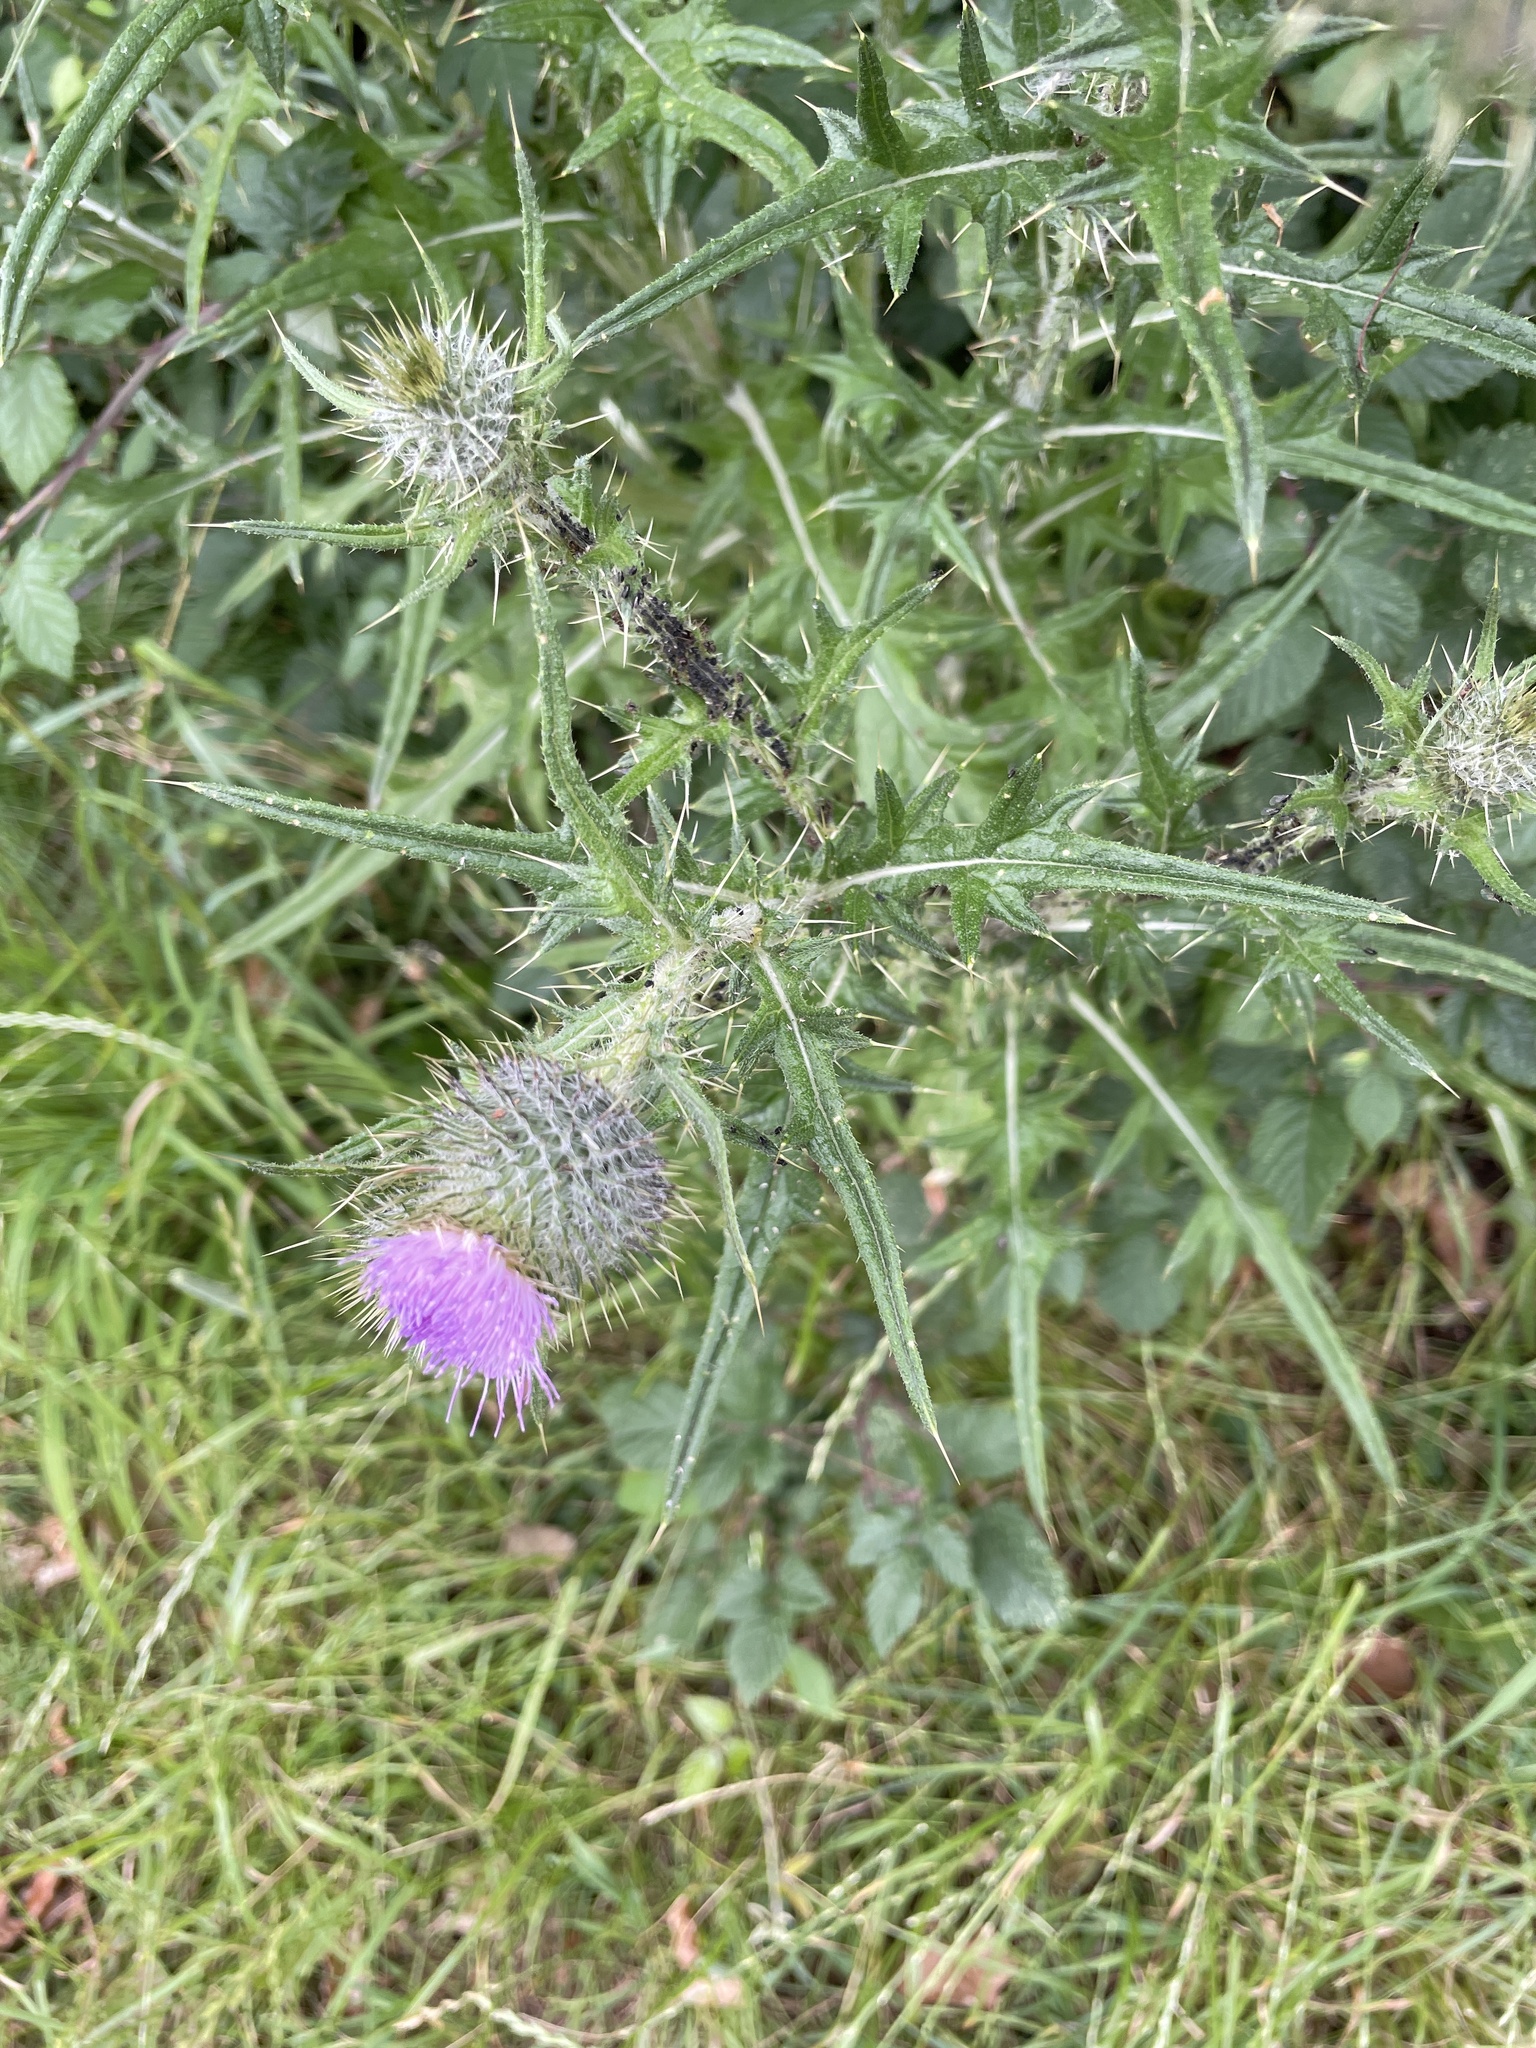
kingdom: Plantae
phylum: Tracheophyta
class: Magnoliopsida
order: Asterales
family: Asteraceae
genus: Cirsium
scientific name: Cirsium vulgare
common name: Bull thistle
